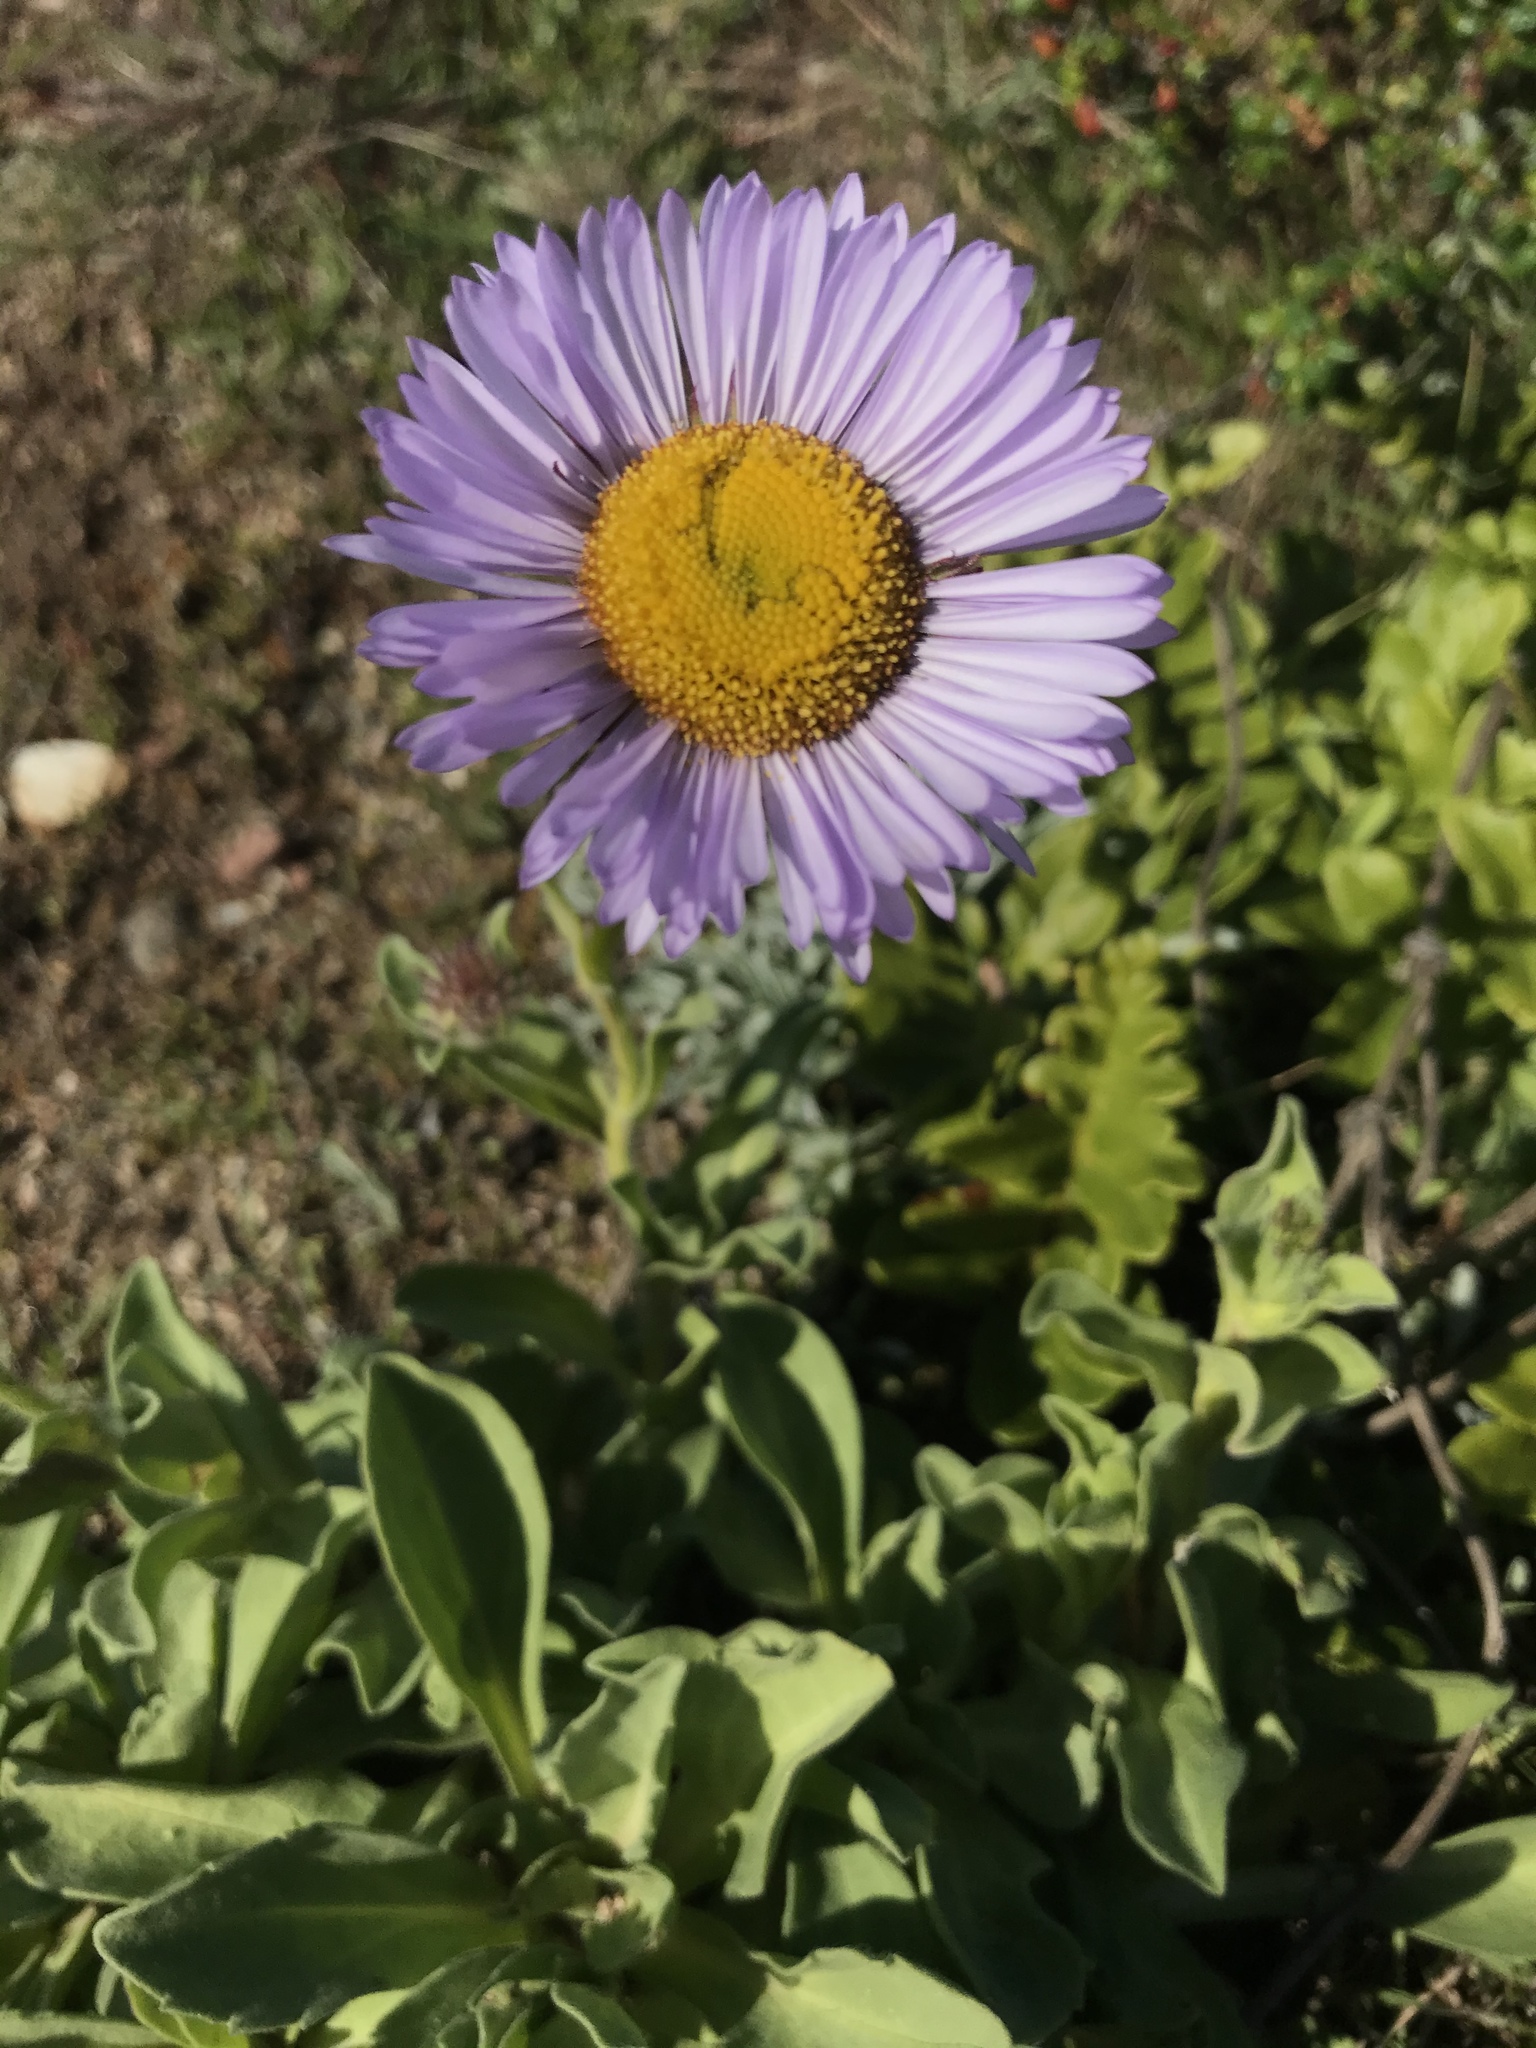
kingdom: Plantae
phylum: Tracheophyta
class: Magnoliopsida
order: Asterales
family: Asteraceae
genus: Erigeron
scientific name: Erigeron glaucus
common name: Seaside daisy
